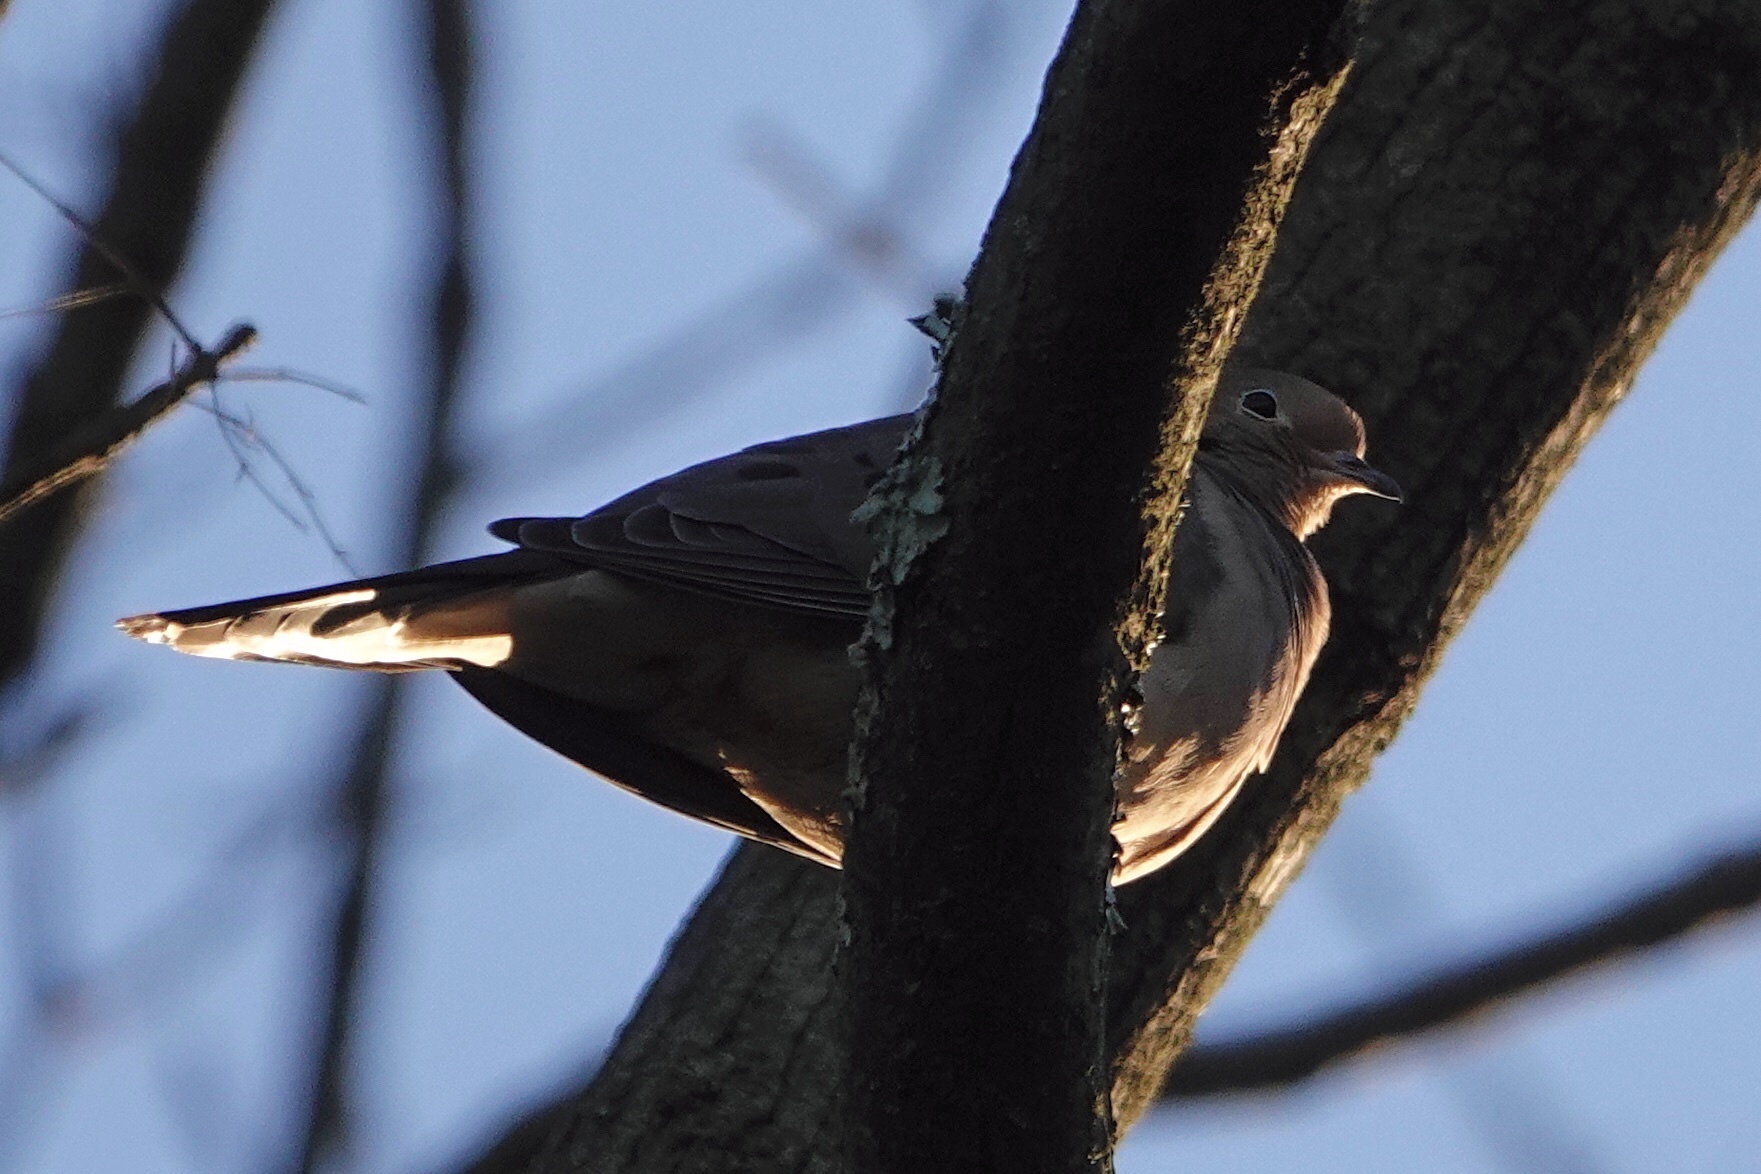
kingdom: Animalia
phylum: Chordata
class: Aves
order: Columbiformes
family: Columbidae
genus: Zenaida
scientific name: Zenaida macroura
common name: Mourning dove
